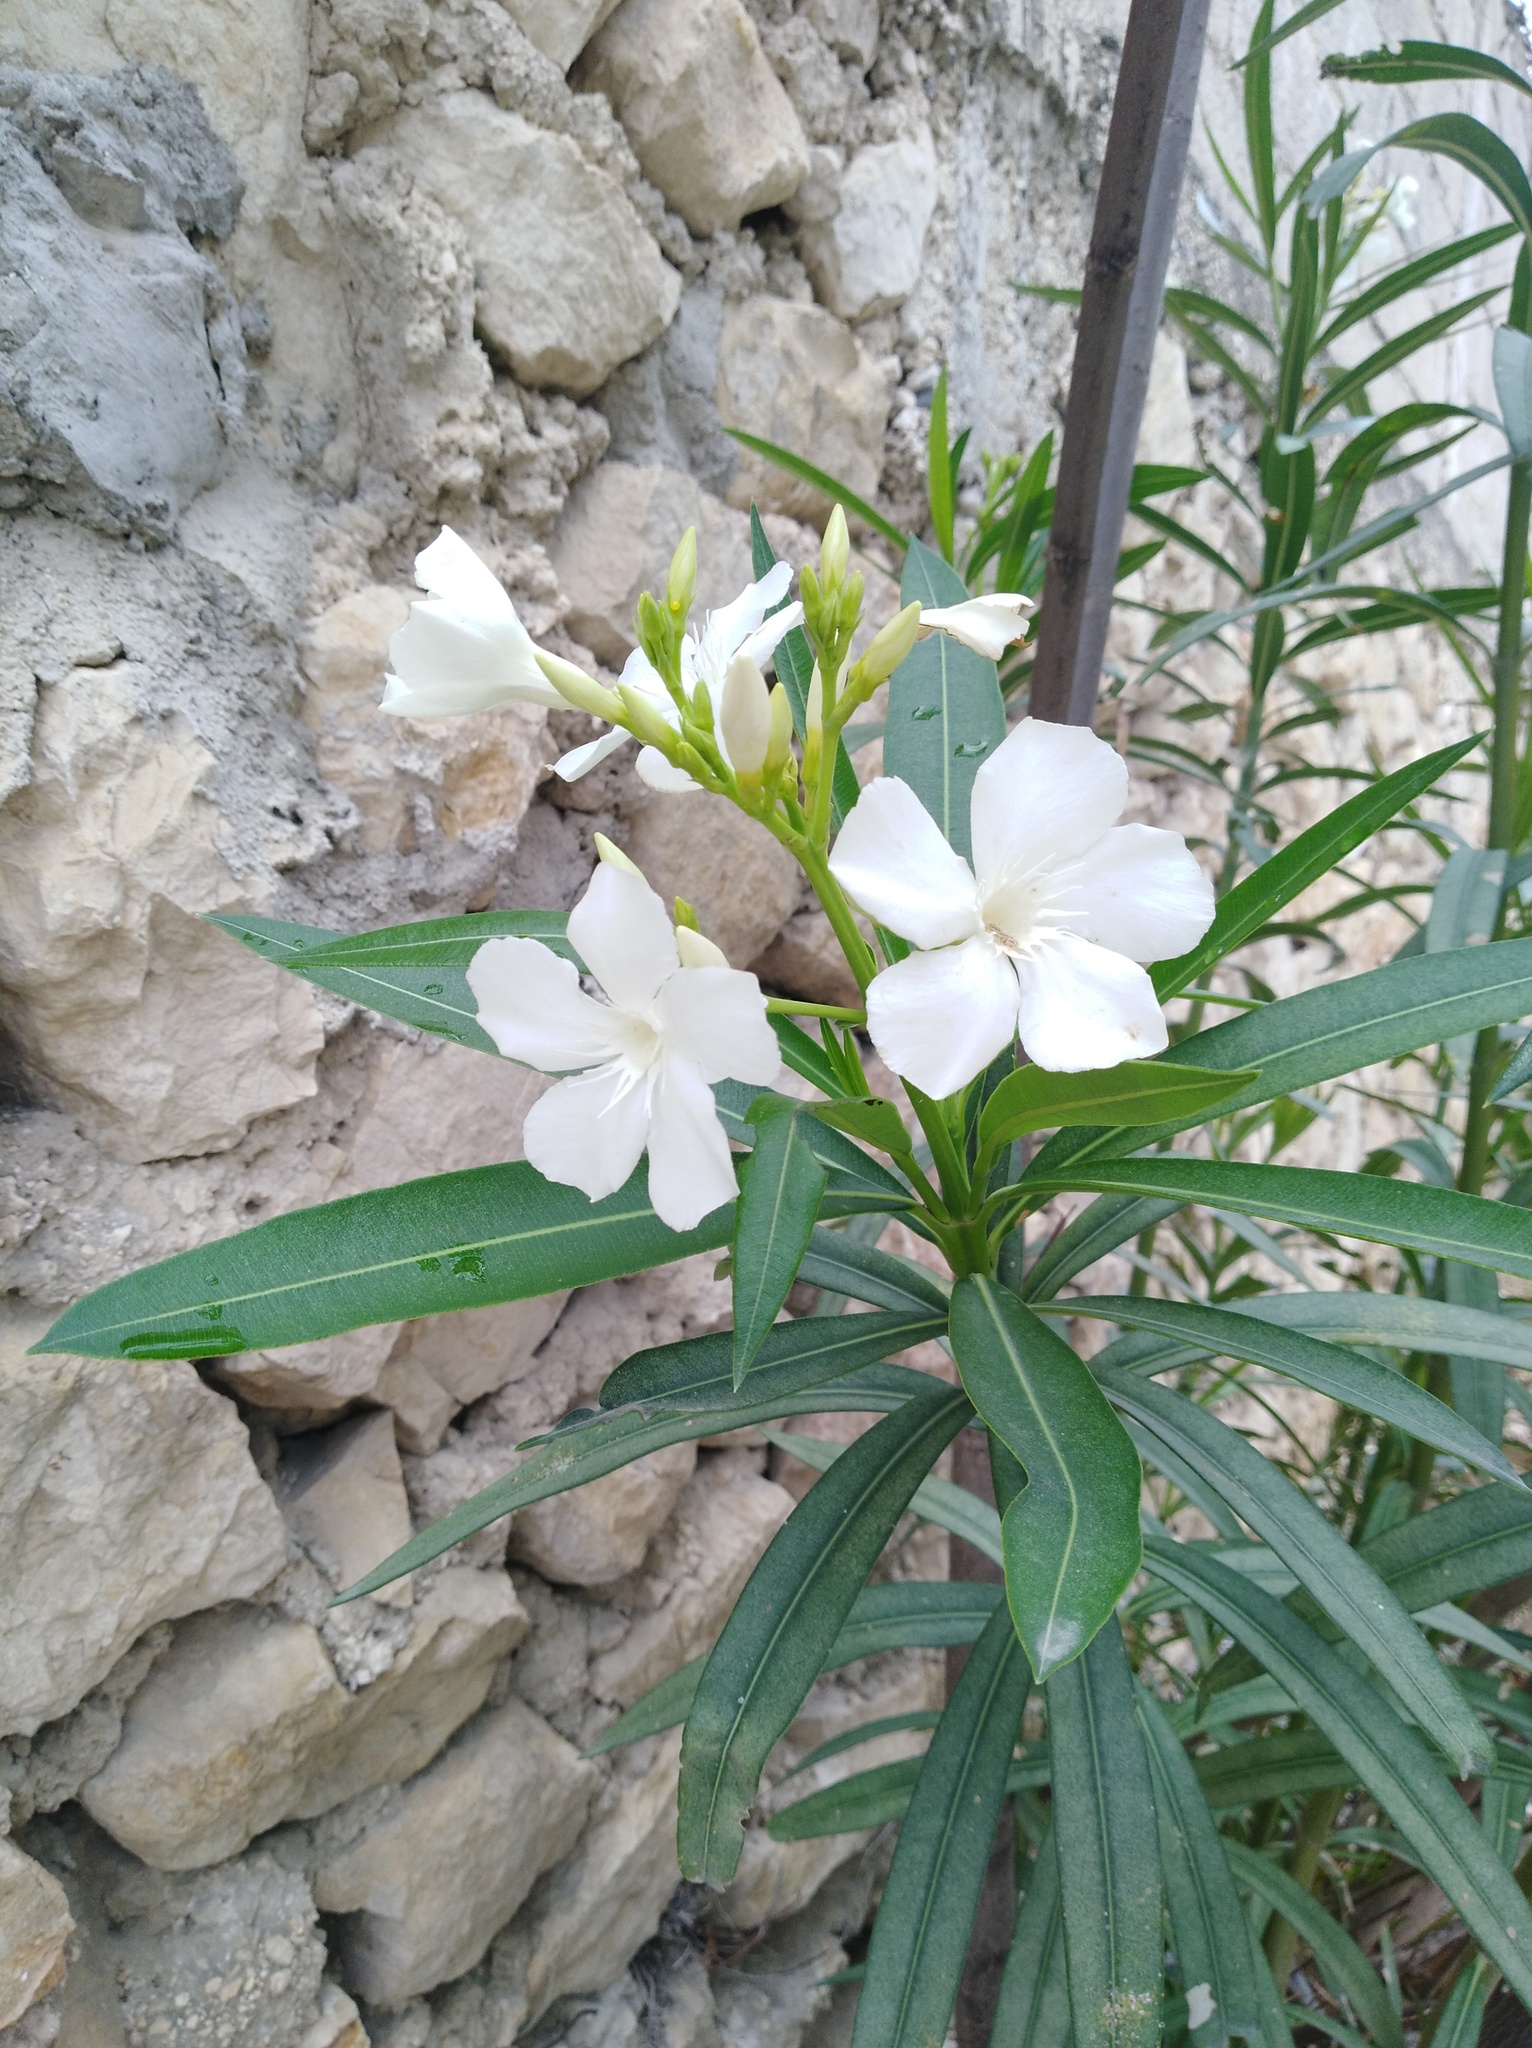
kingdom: Plantae
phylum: Tracheophyta
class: Magnoliopsida
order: Gentianales
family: Apocynaceae
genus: Nerium
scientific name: Nerium oleander
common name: Oleander
